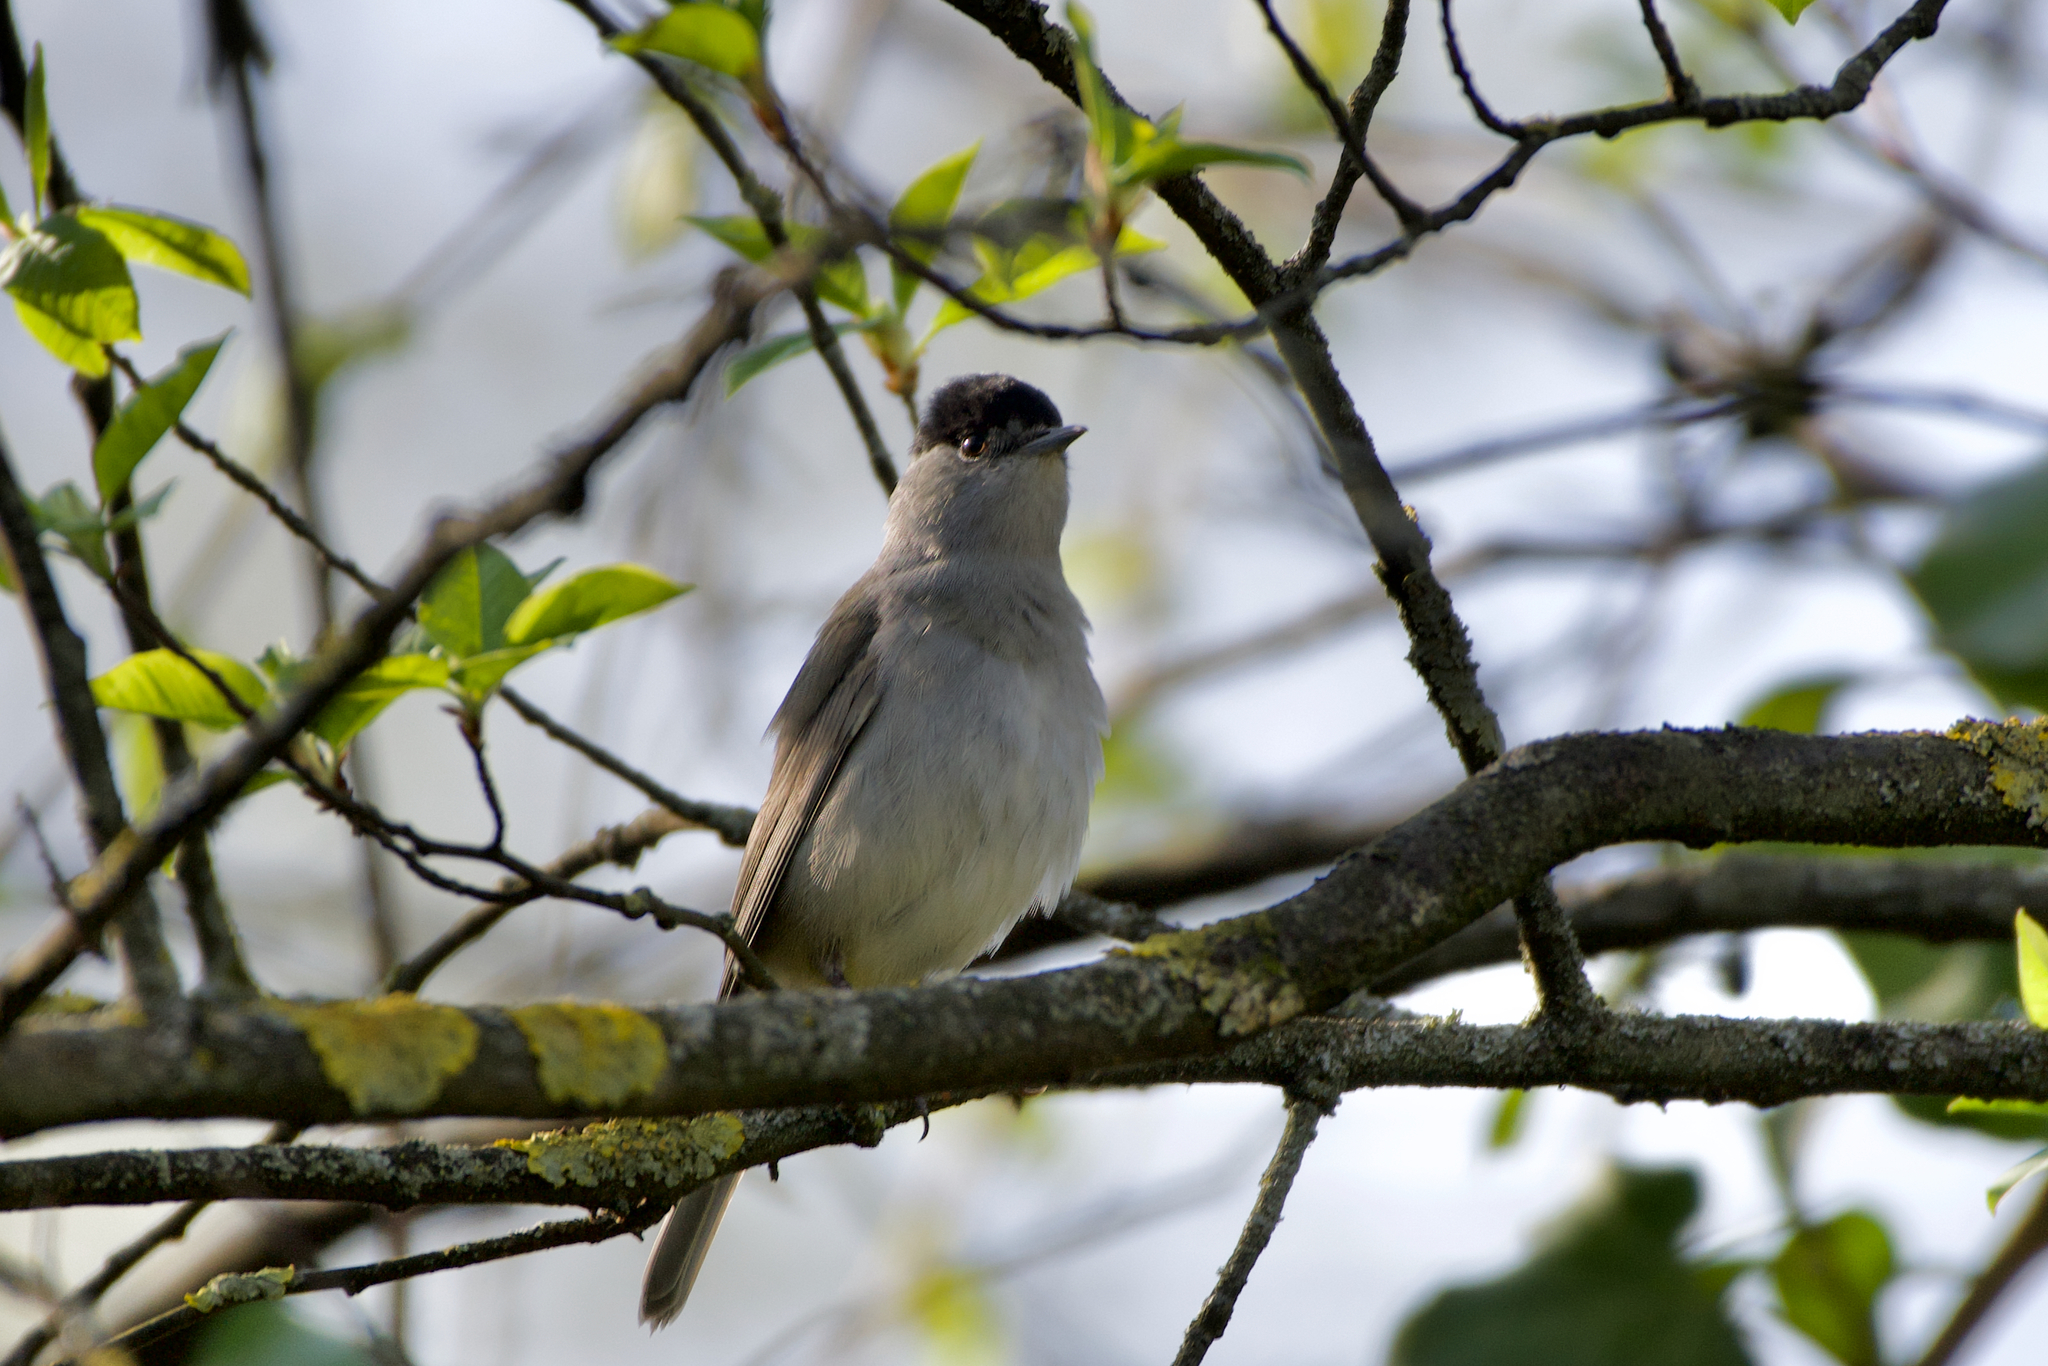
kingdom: Animalia
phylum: Chordata
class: Aves
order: Passeriformes
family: Sylviidae
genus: Sylvia
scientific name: Sylvia atricapilla
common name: Eurasian blackcap
